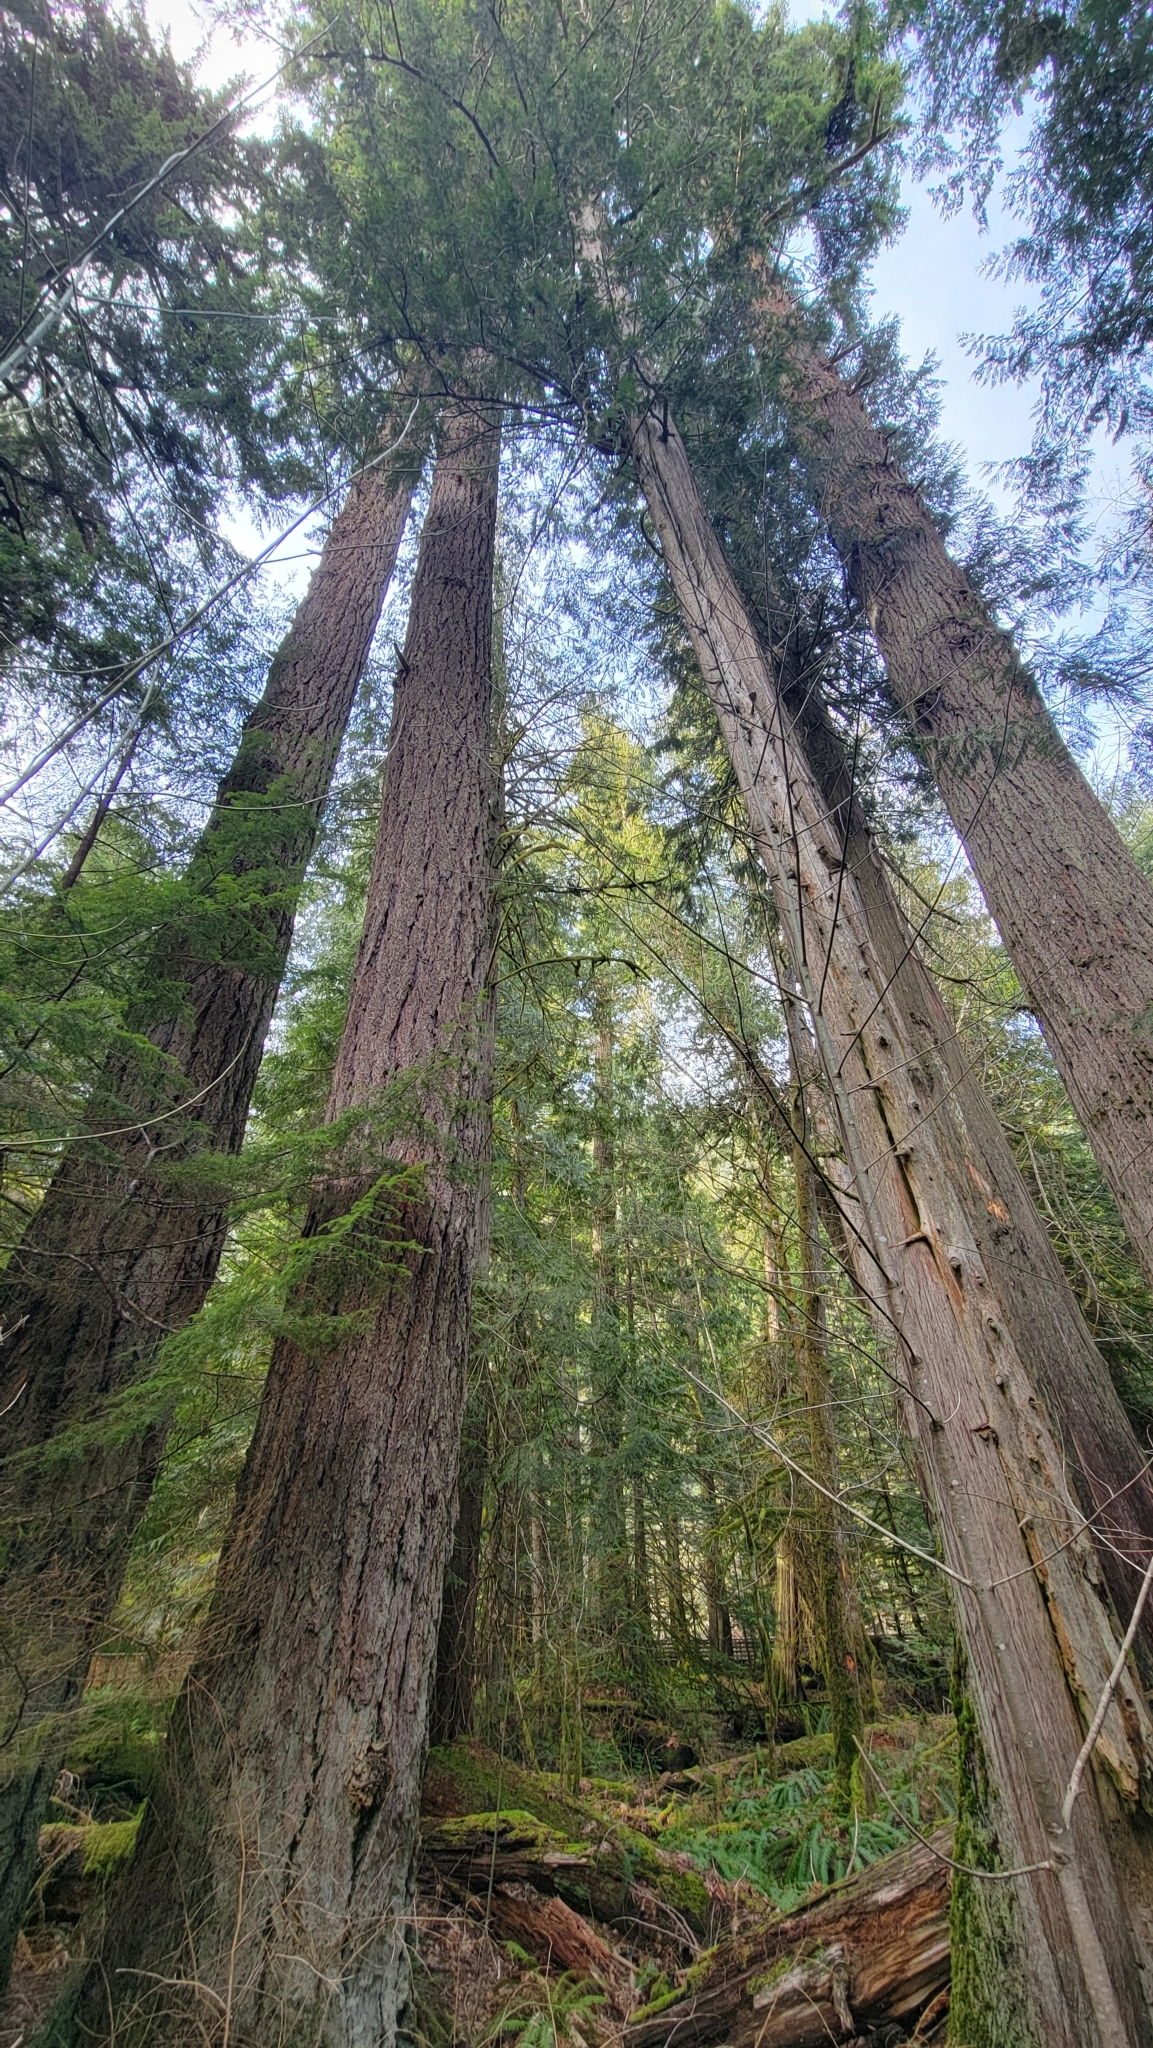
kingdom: Plantae
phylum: Tracheophyta
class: Pinopsida
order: Pinales
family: Pinaceae
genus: Pseudotsuga
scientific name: Pseudotsuga menziesii
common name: Douglas fir
